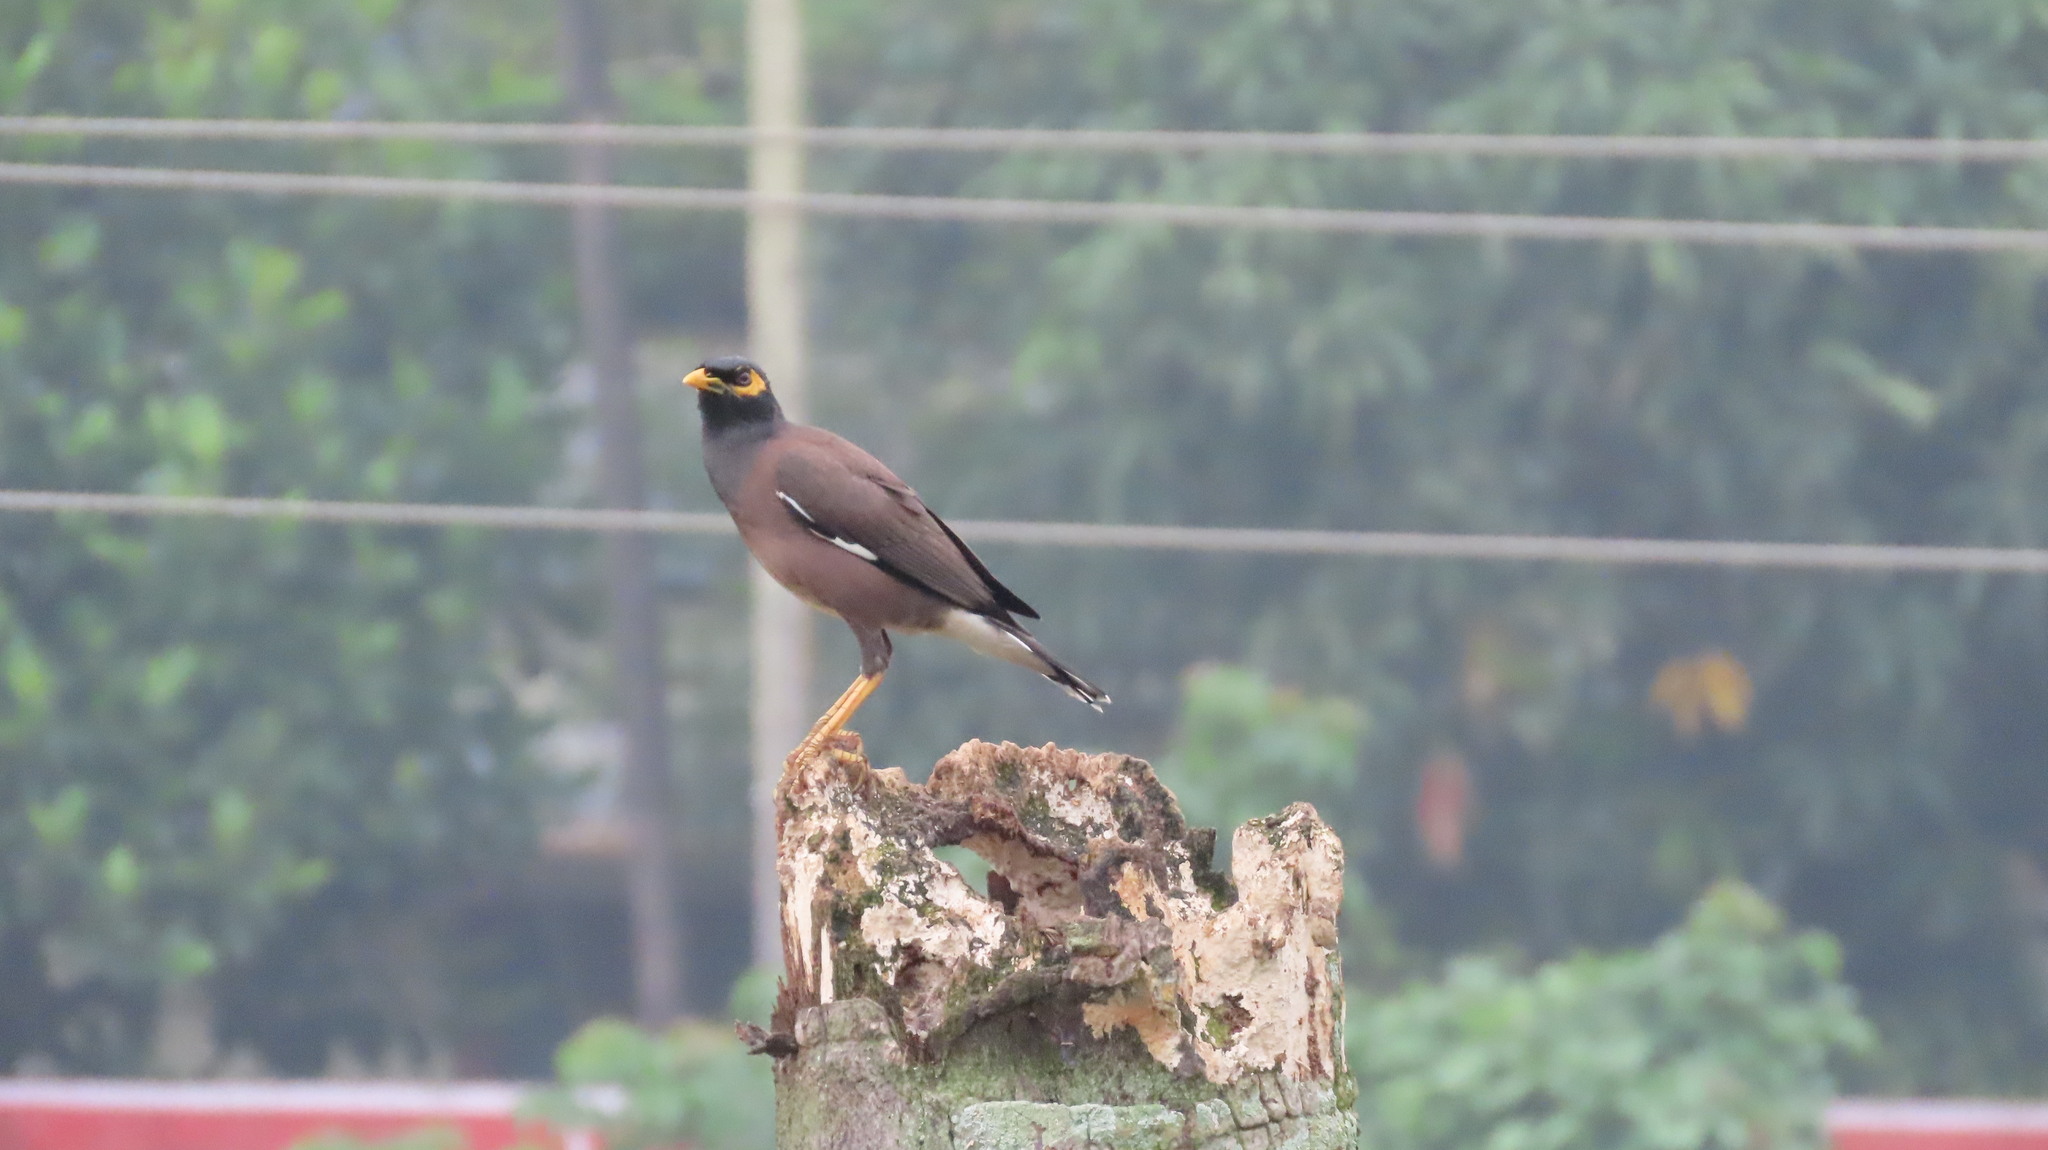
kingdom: Animalia
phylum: Chordata
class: Aves
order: Passeriformes
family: Sturnidae
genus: Acridotheres
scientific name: Acridotheres tristis
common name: Common myna
